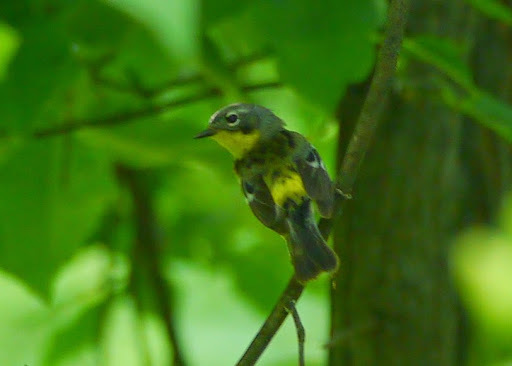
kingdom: Animalia
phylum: Chordata
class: Aves
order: Passeriformes
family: Parulidae
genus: Setophaga
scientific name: Setophaga magnolia
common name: Magnolia warbler
